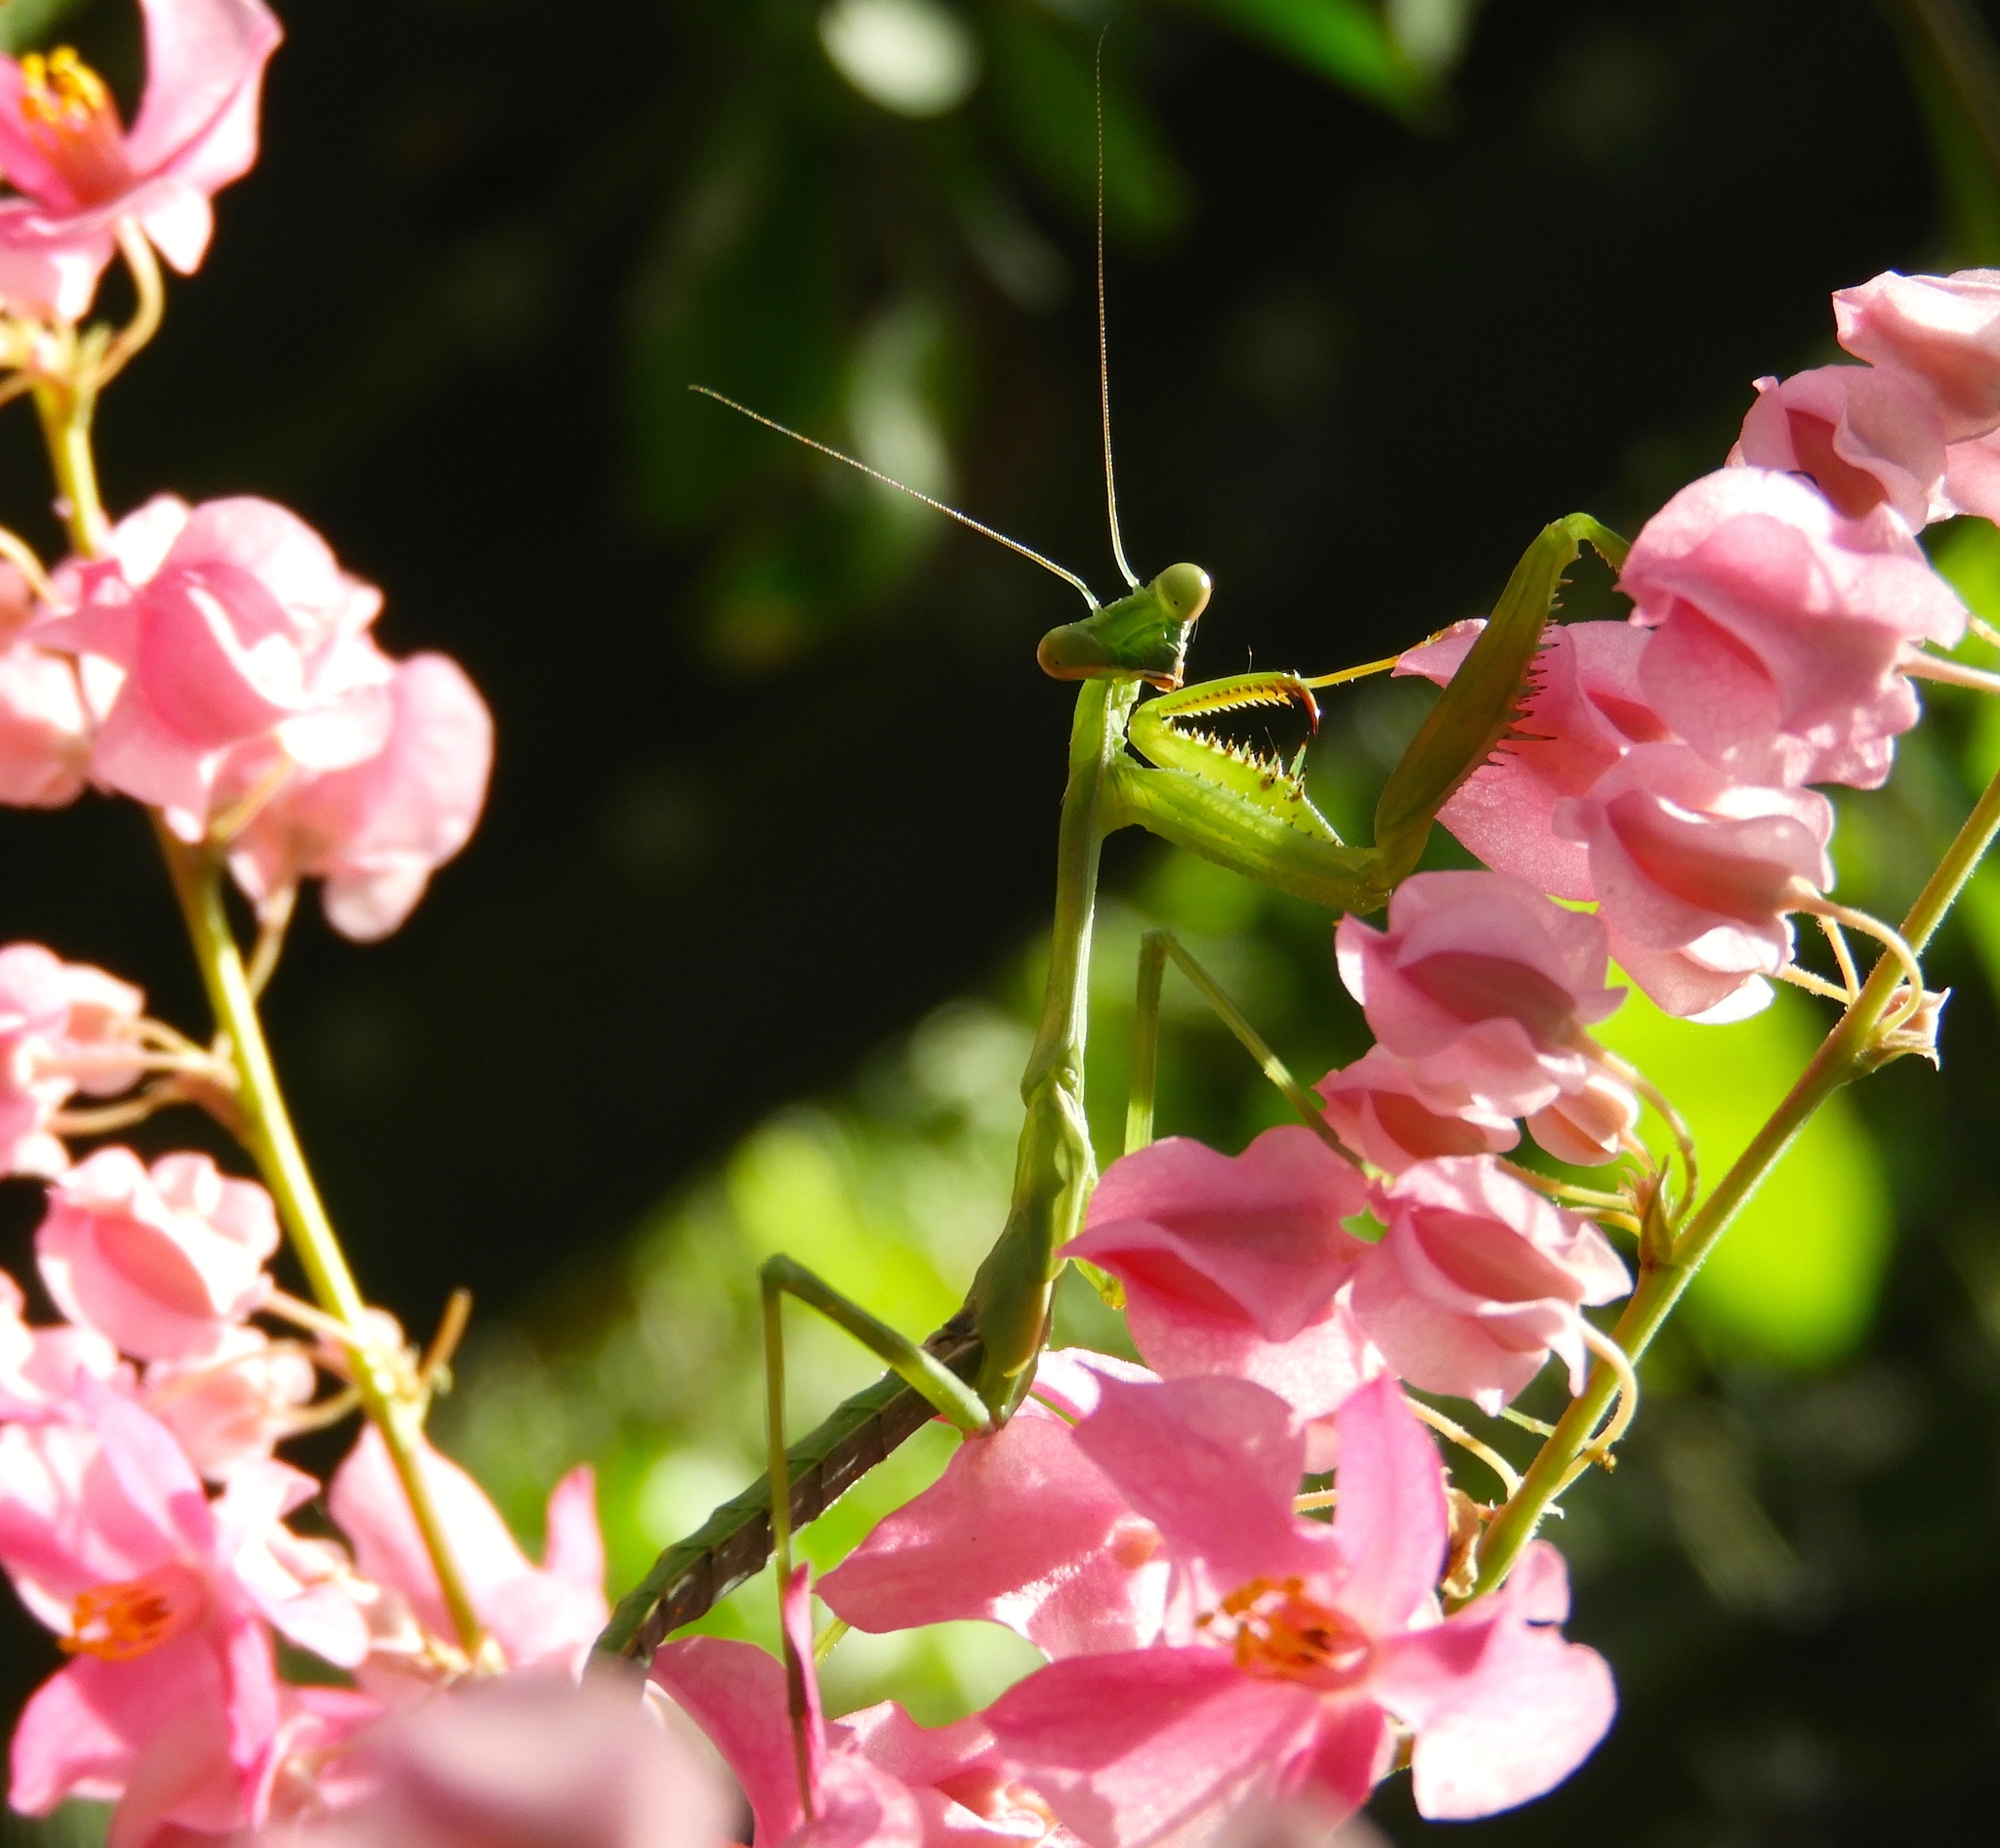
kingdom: Animalia
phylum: Arthropoda
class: Insecta
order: Mantodea
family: Mantidae
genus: Stagmomantis
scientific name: Stagmomantis
